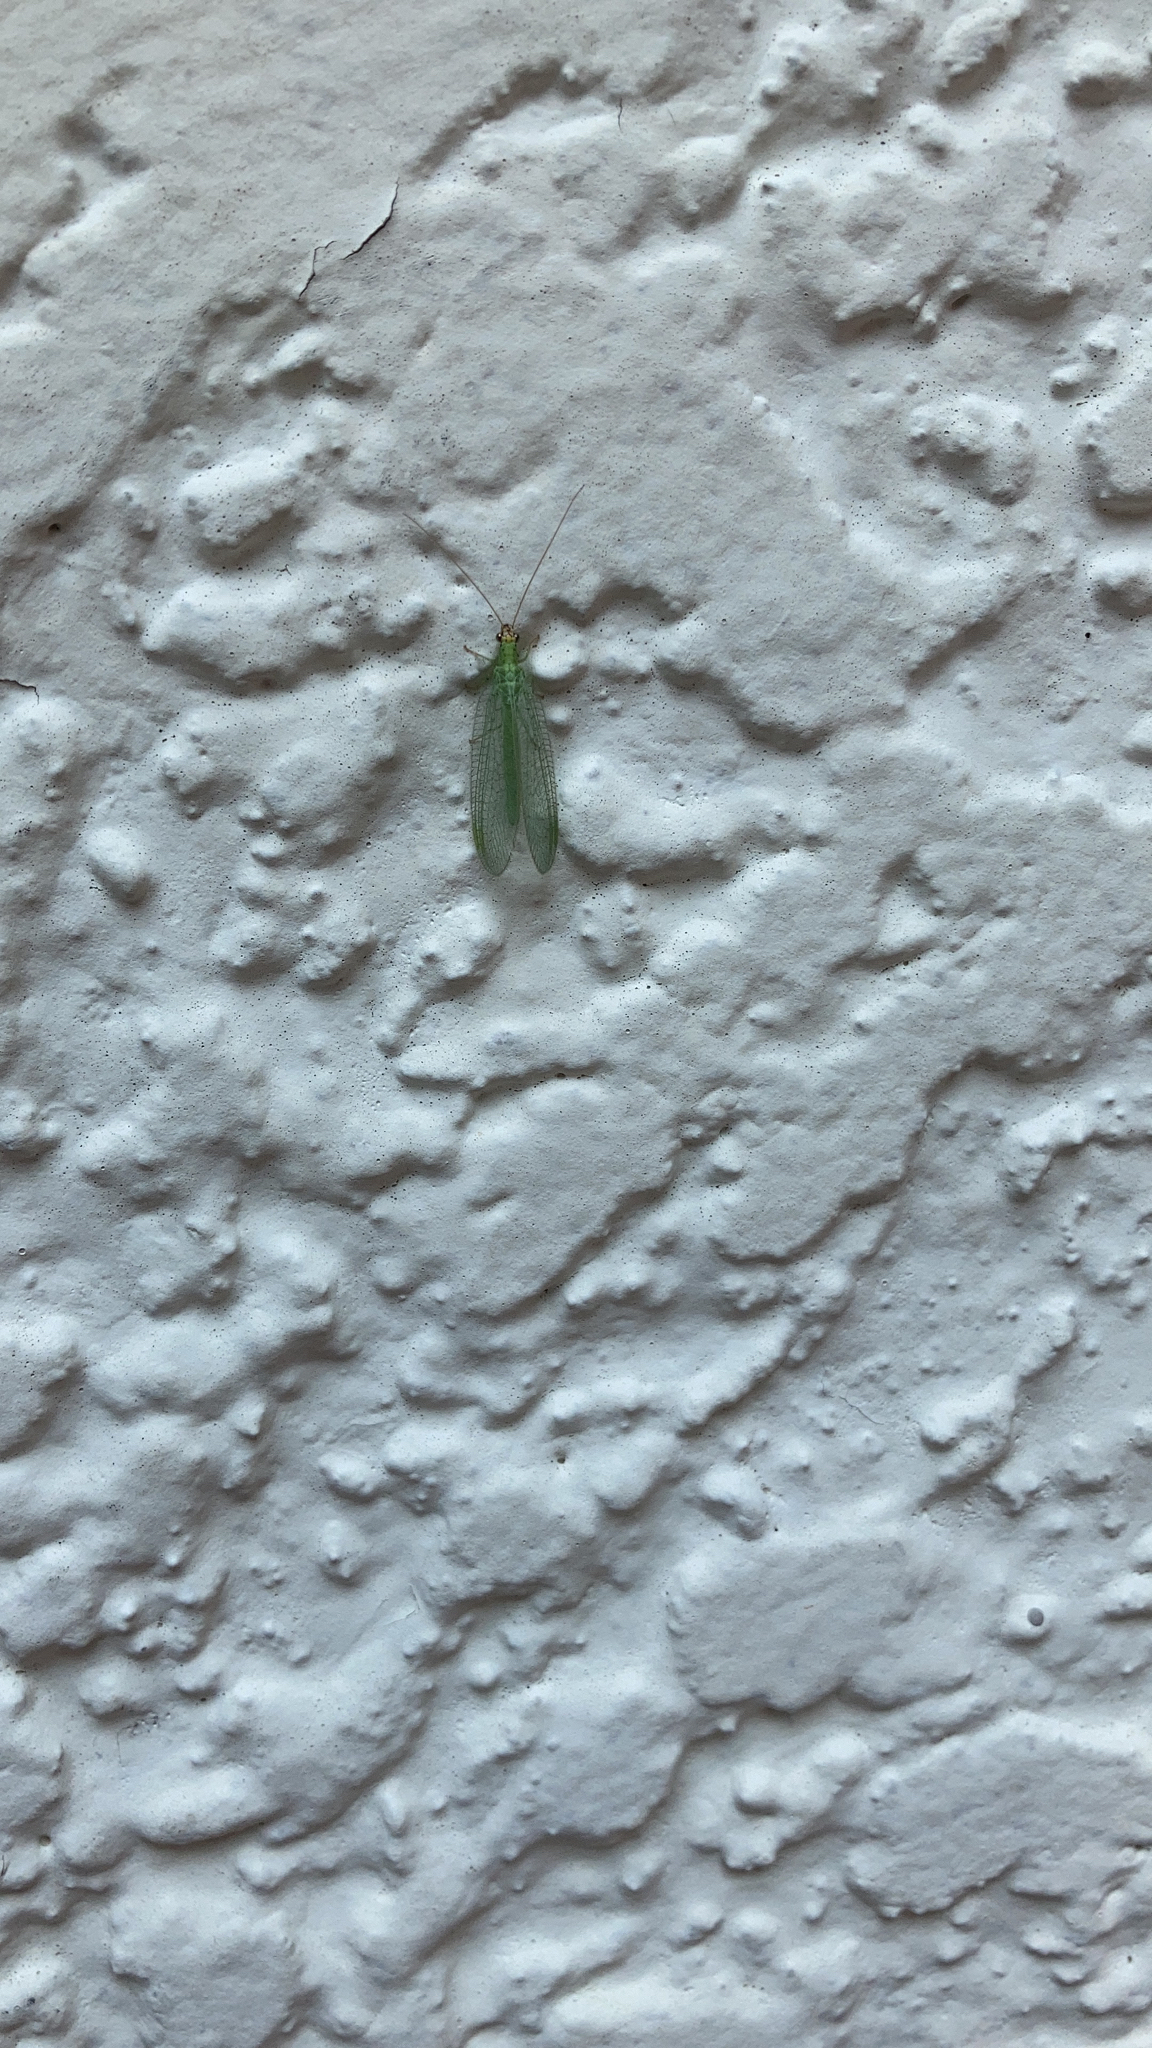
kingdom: Animalia
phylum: Arthropoda
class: Insecta
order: Neuroptera
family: Chrysopidae
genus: Chrysopa
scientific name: Chrysopa oculata
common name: Golden-eyed lacewing
